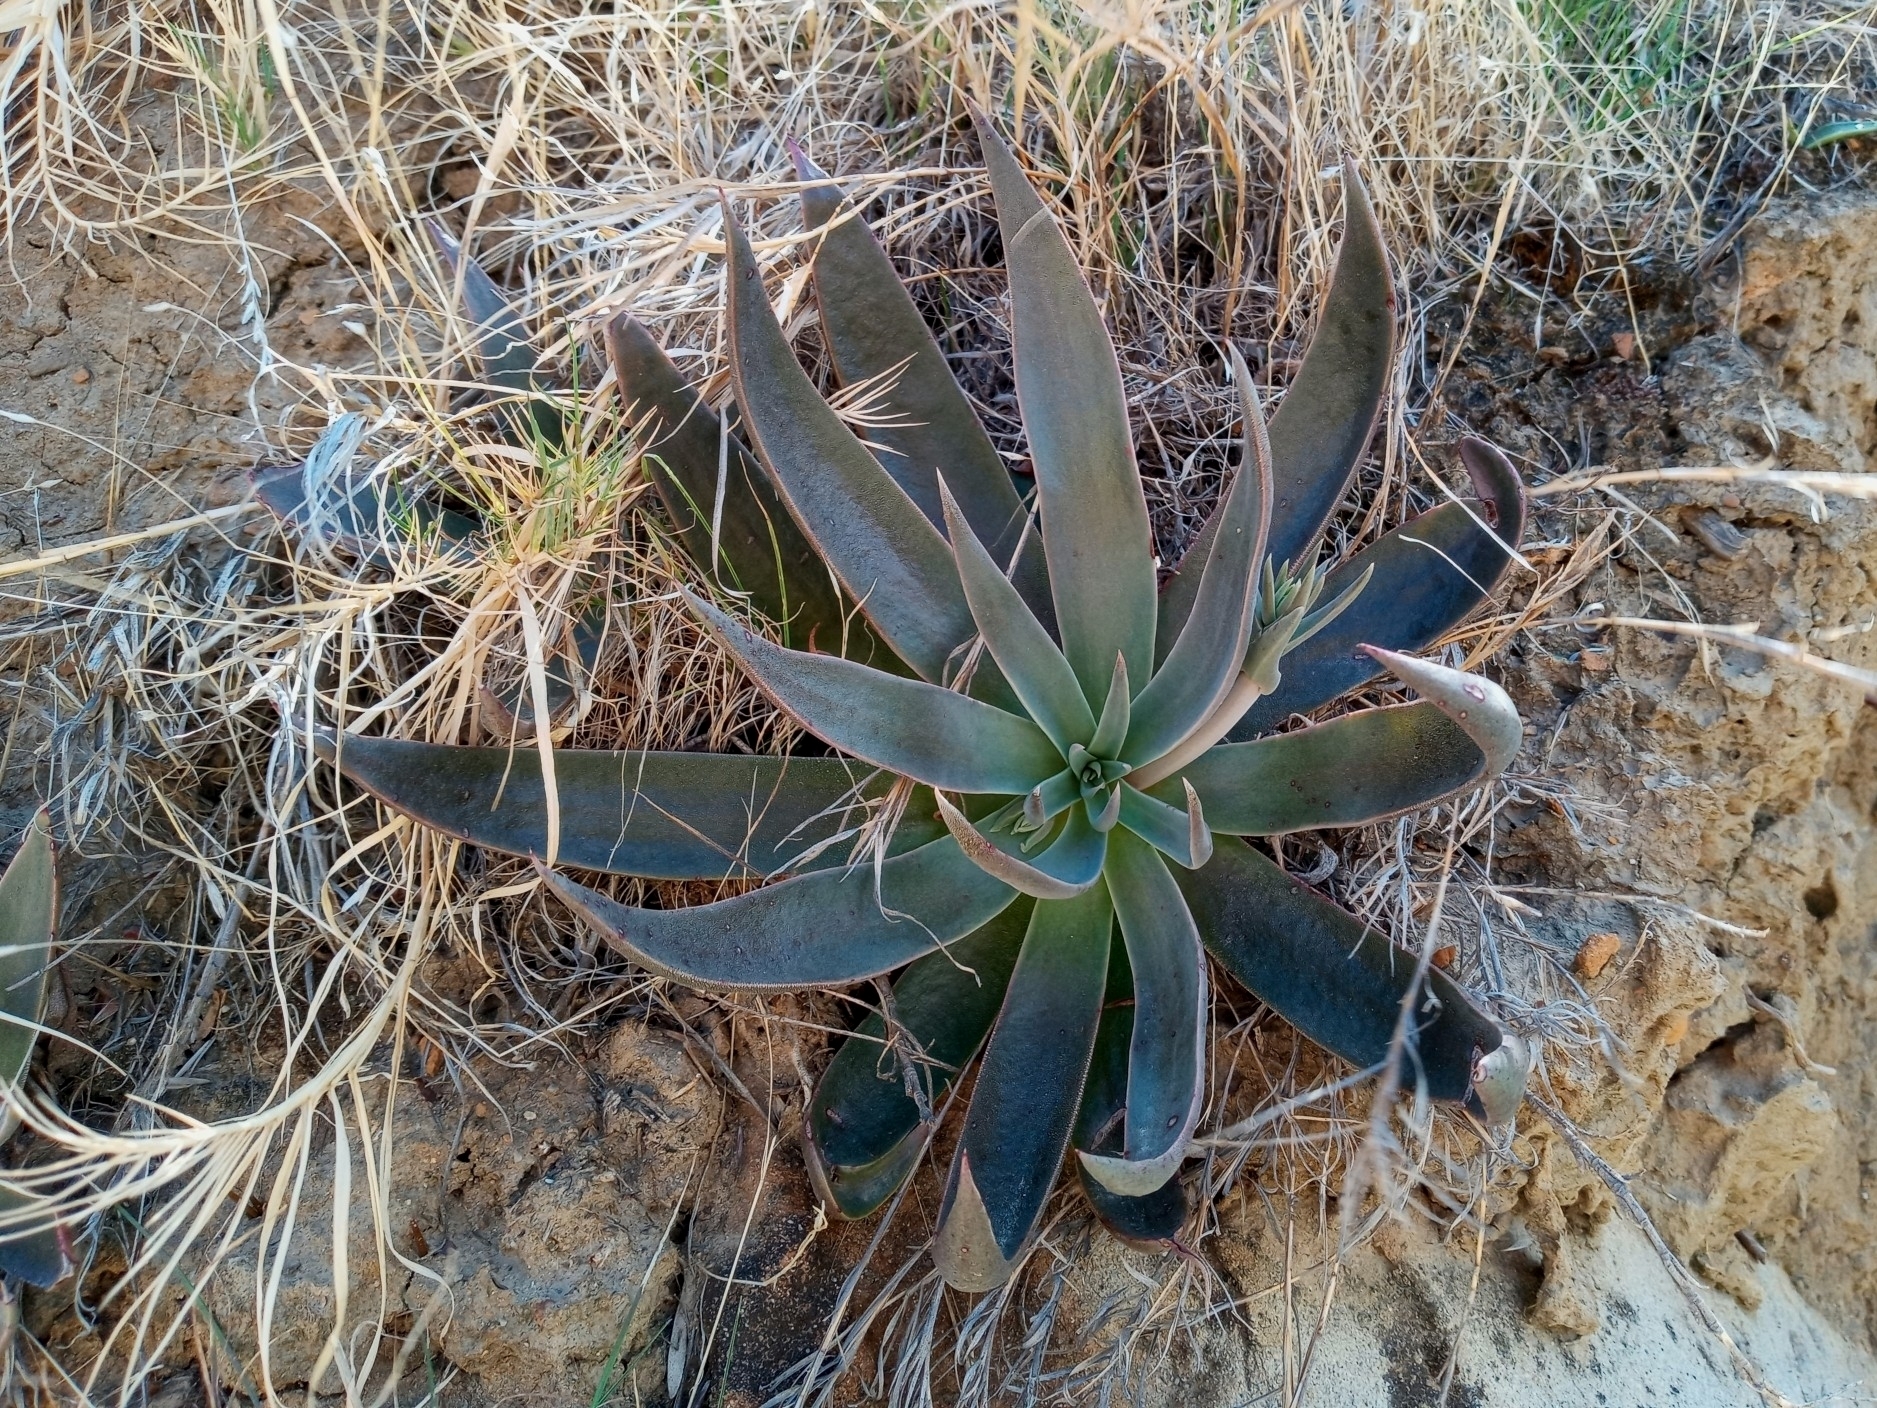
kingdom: Plantae
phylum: Tracheophyta
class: Magnoliopsida
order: Saxifragales
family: Crassulaceae
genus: Dudleya
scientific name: Dudleya lanceolata
